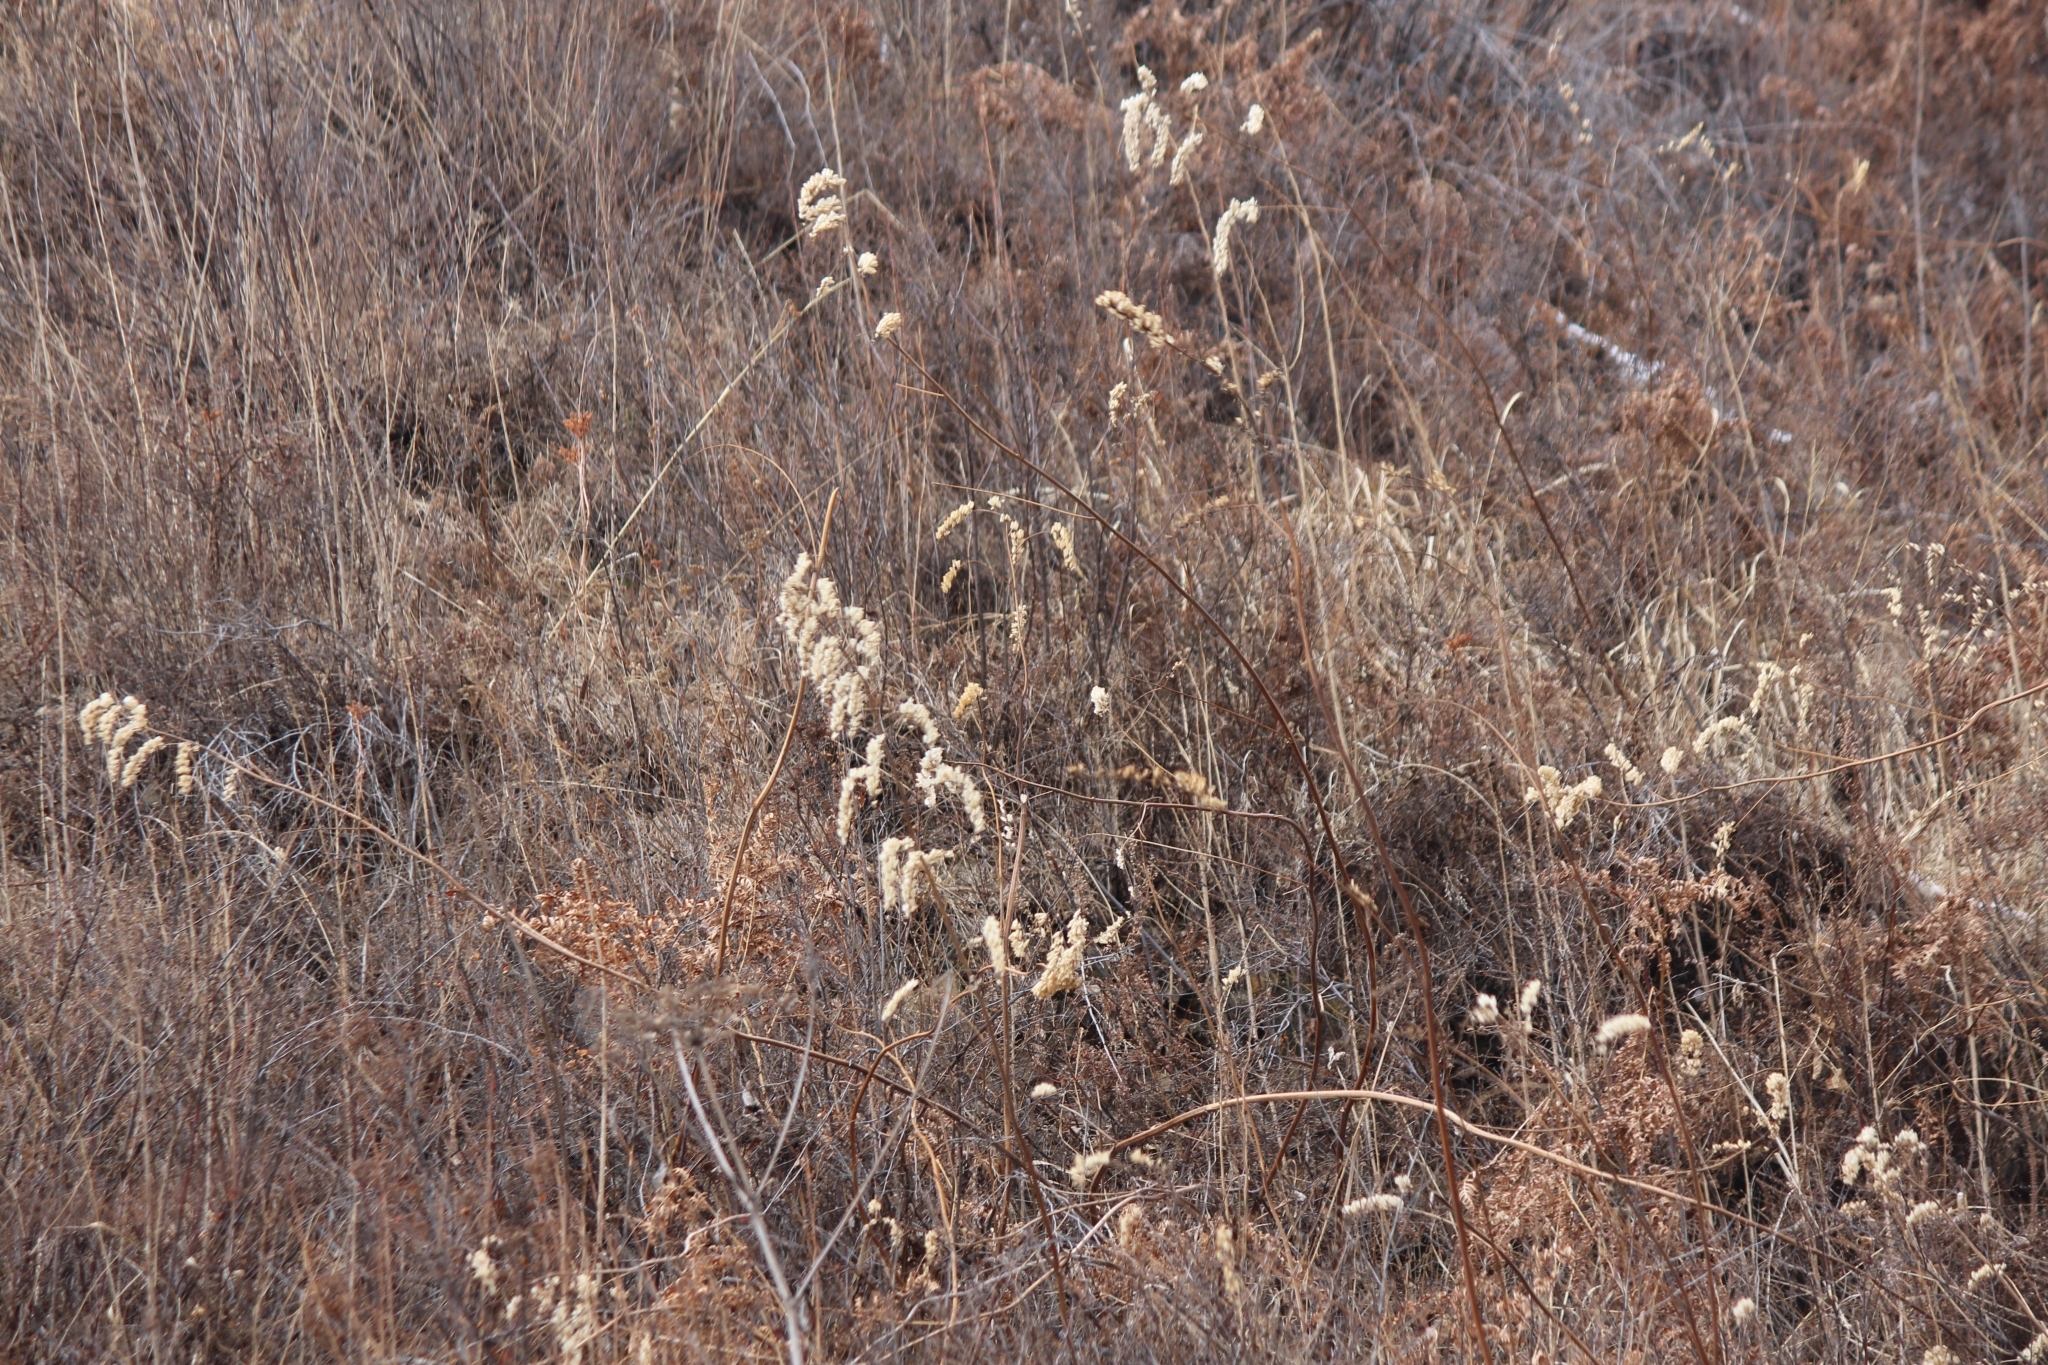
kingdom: Plantae
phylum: Tracheophyta
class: Magnoliopsida
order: Ranunculales
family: Ranunculaceae
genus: Actaea
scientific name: Actaea cimicifuga
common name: Chinese cimicifuga
